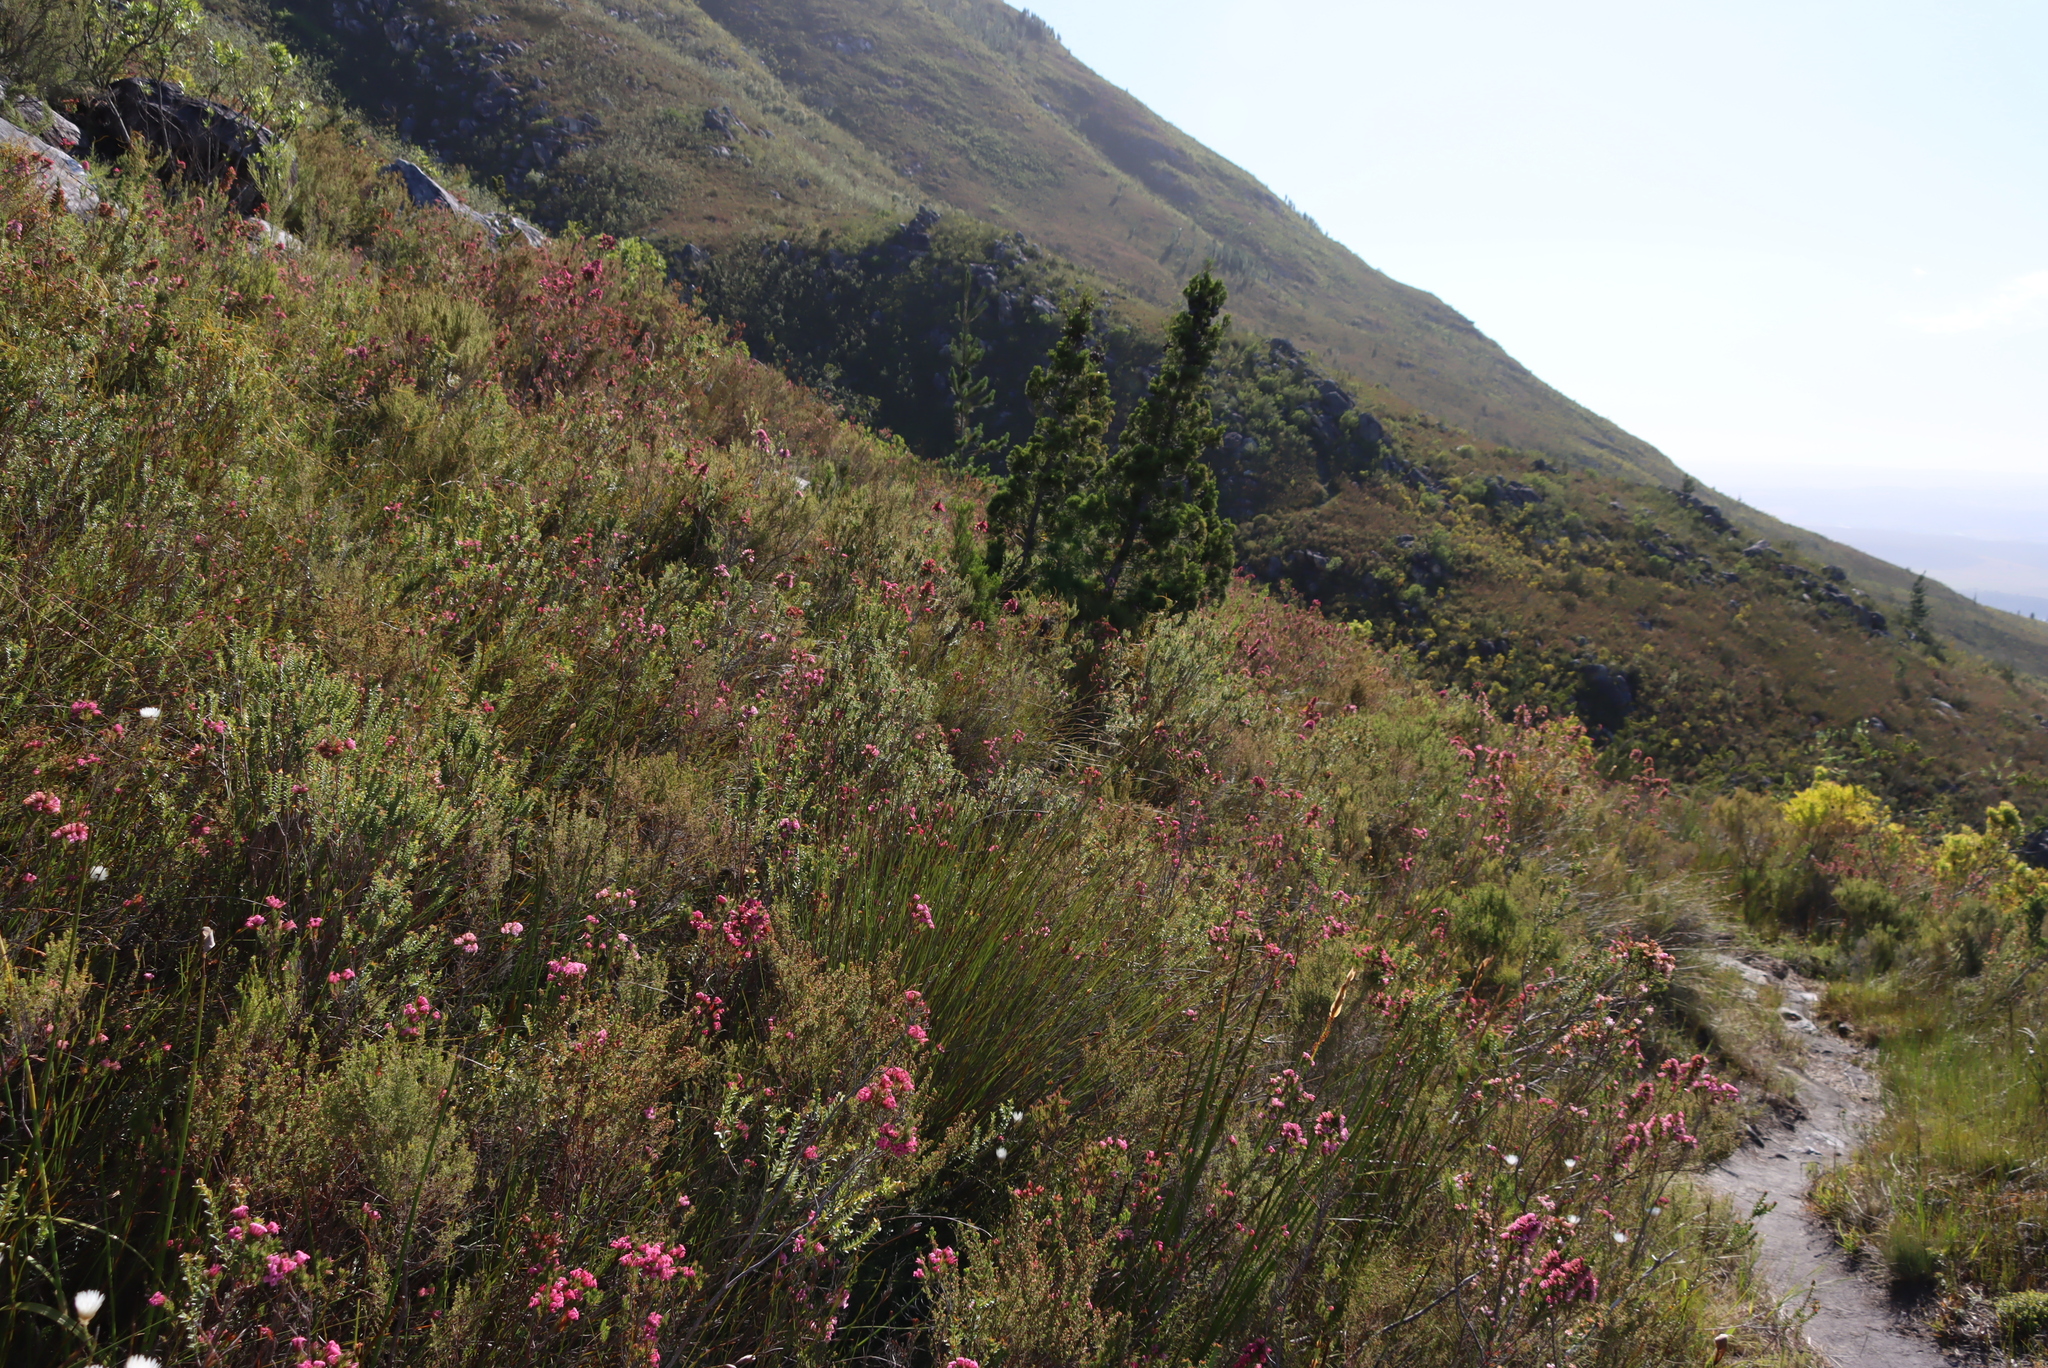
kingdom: Plantae
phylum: Tracheophyta
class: Pinopsida
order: Pinales
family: Cupressaceae
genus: Widdringtonia
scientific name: Widdringtonia nodiflora
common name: Cape cypress
